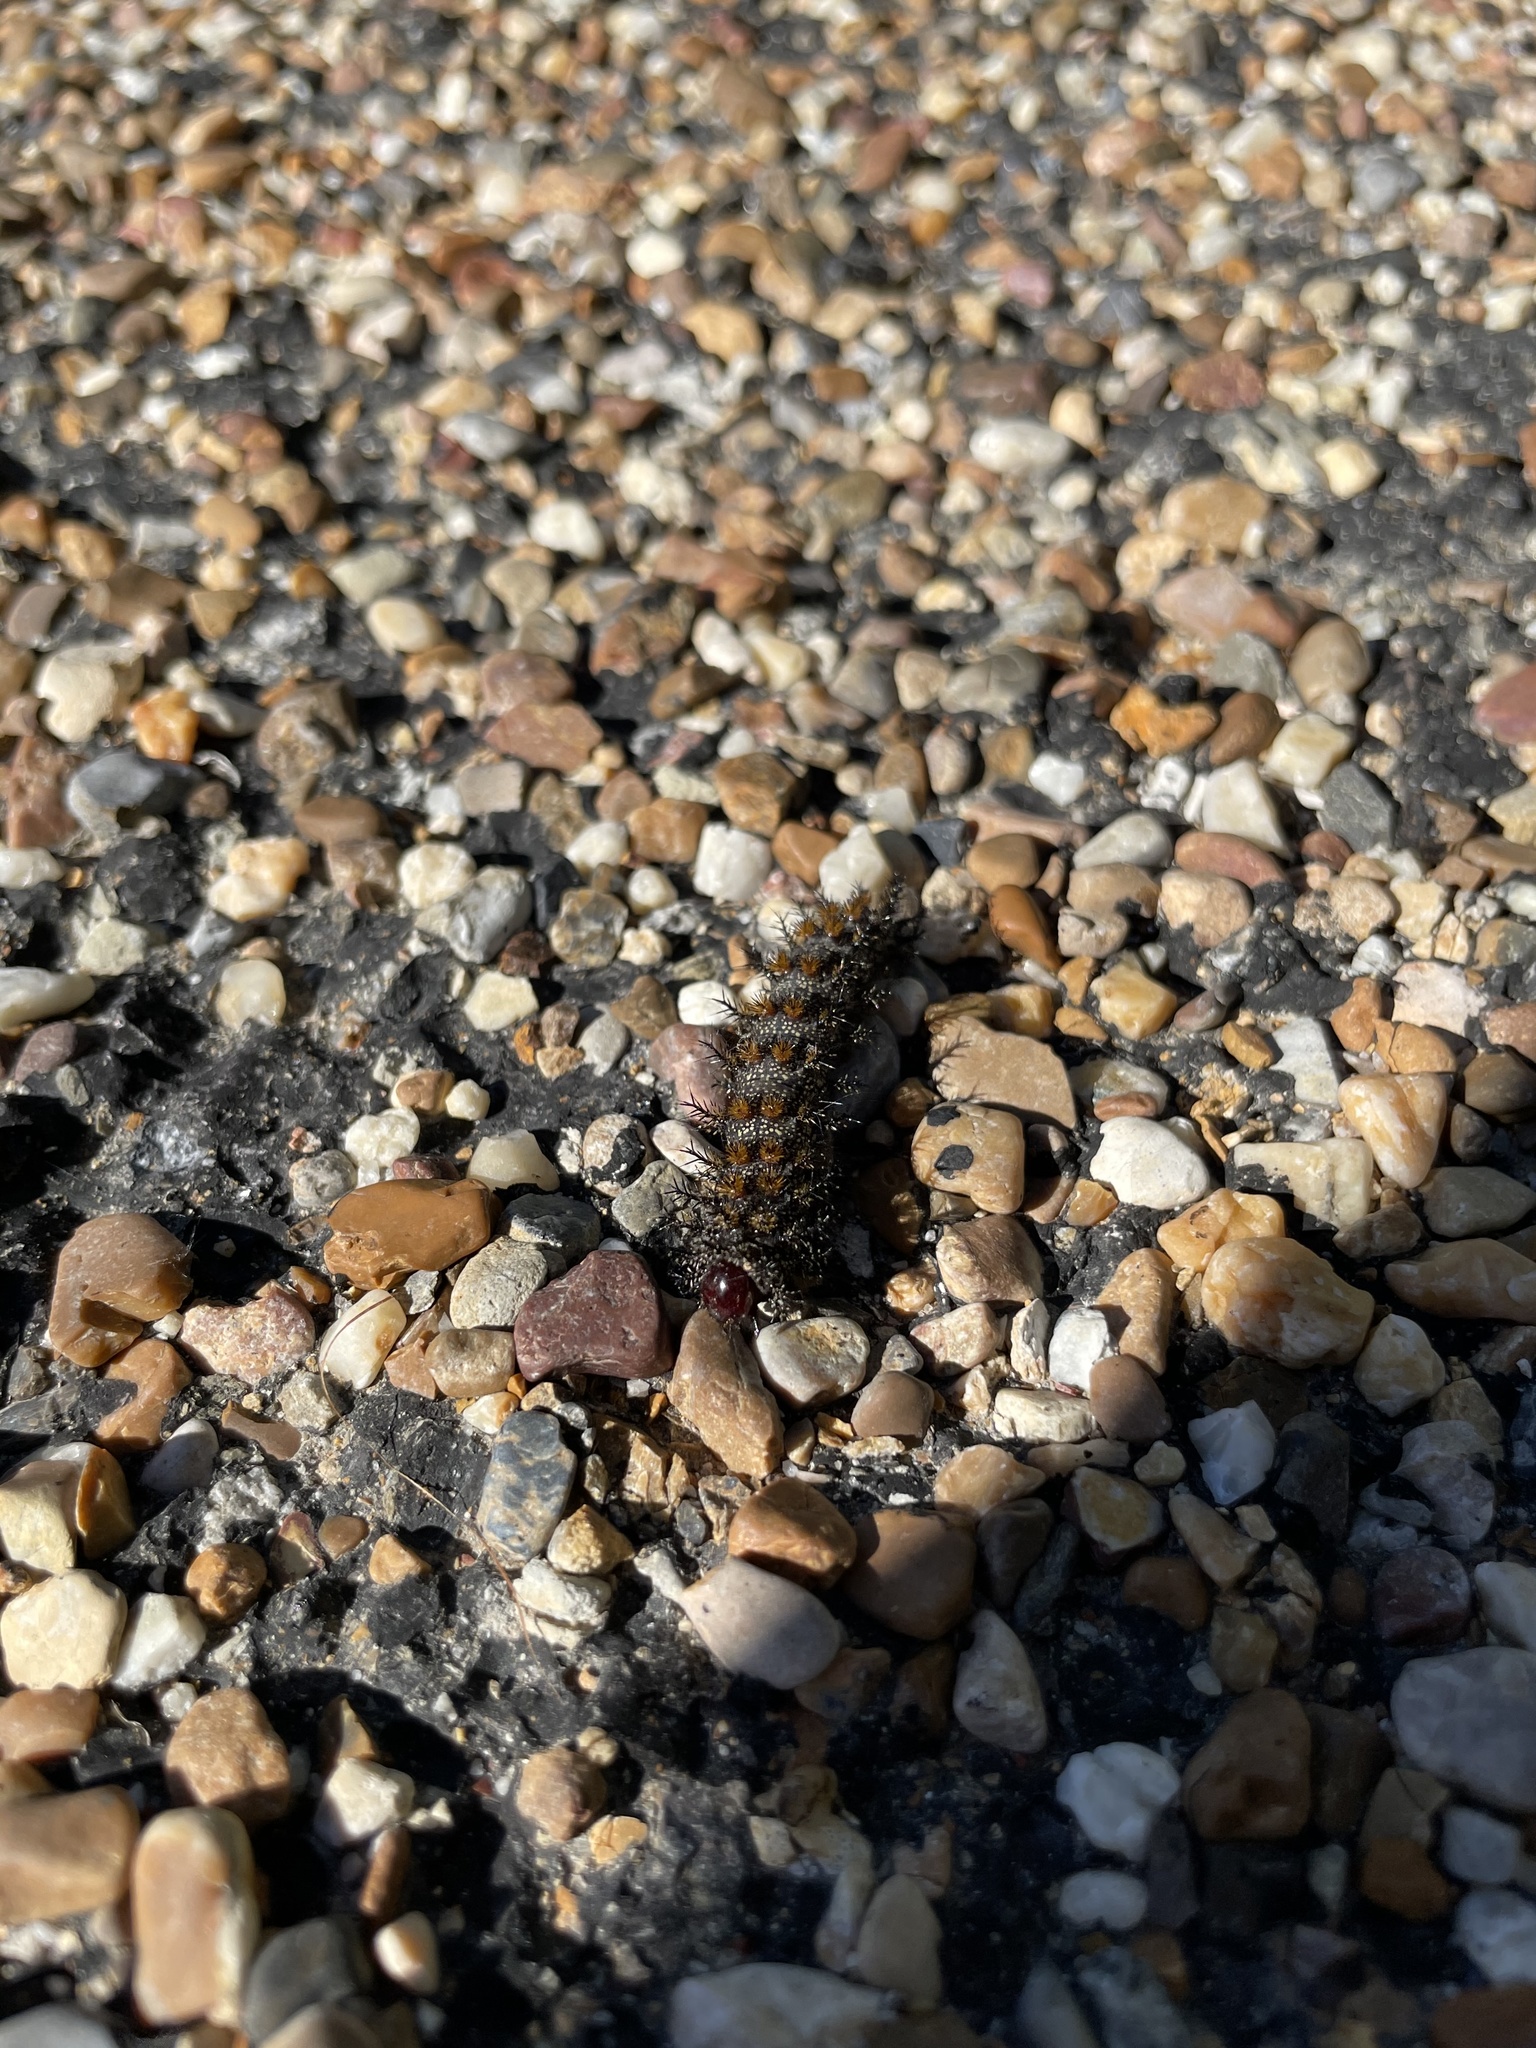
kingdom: Animalia
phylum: Arthropoda
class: Insecta
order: Lepidoptera
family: Saturniidae
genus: Hemileuca
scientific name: Hemileuca maia
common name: Eastern buckmoth
